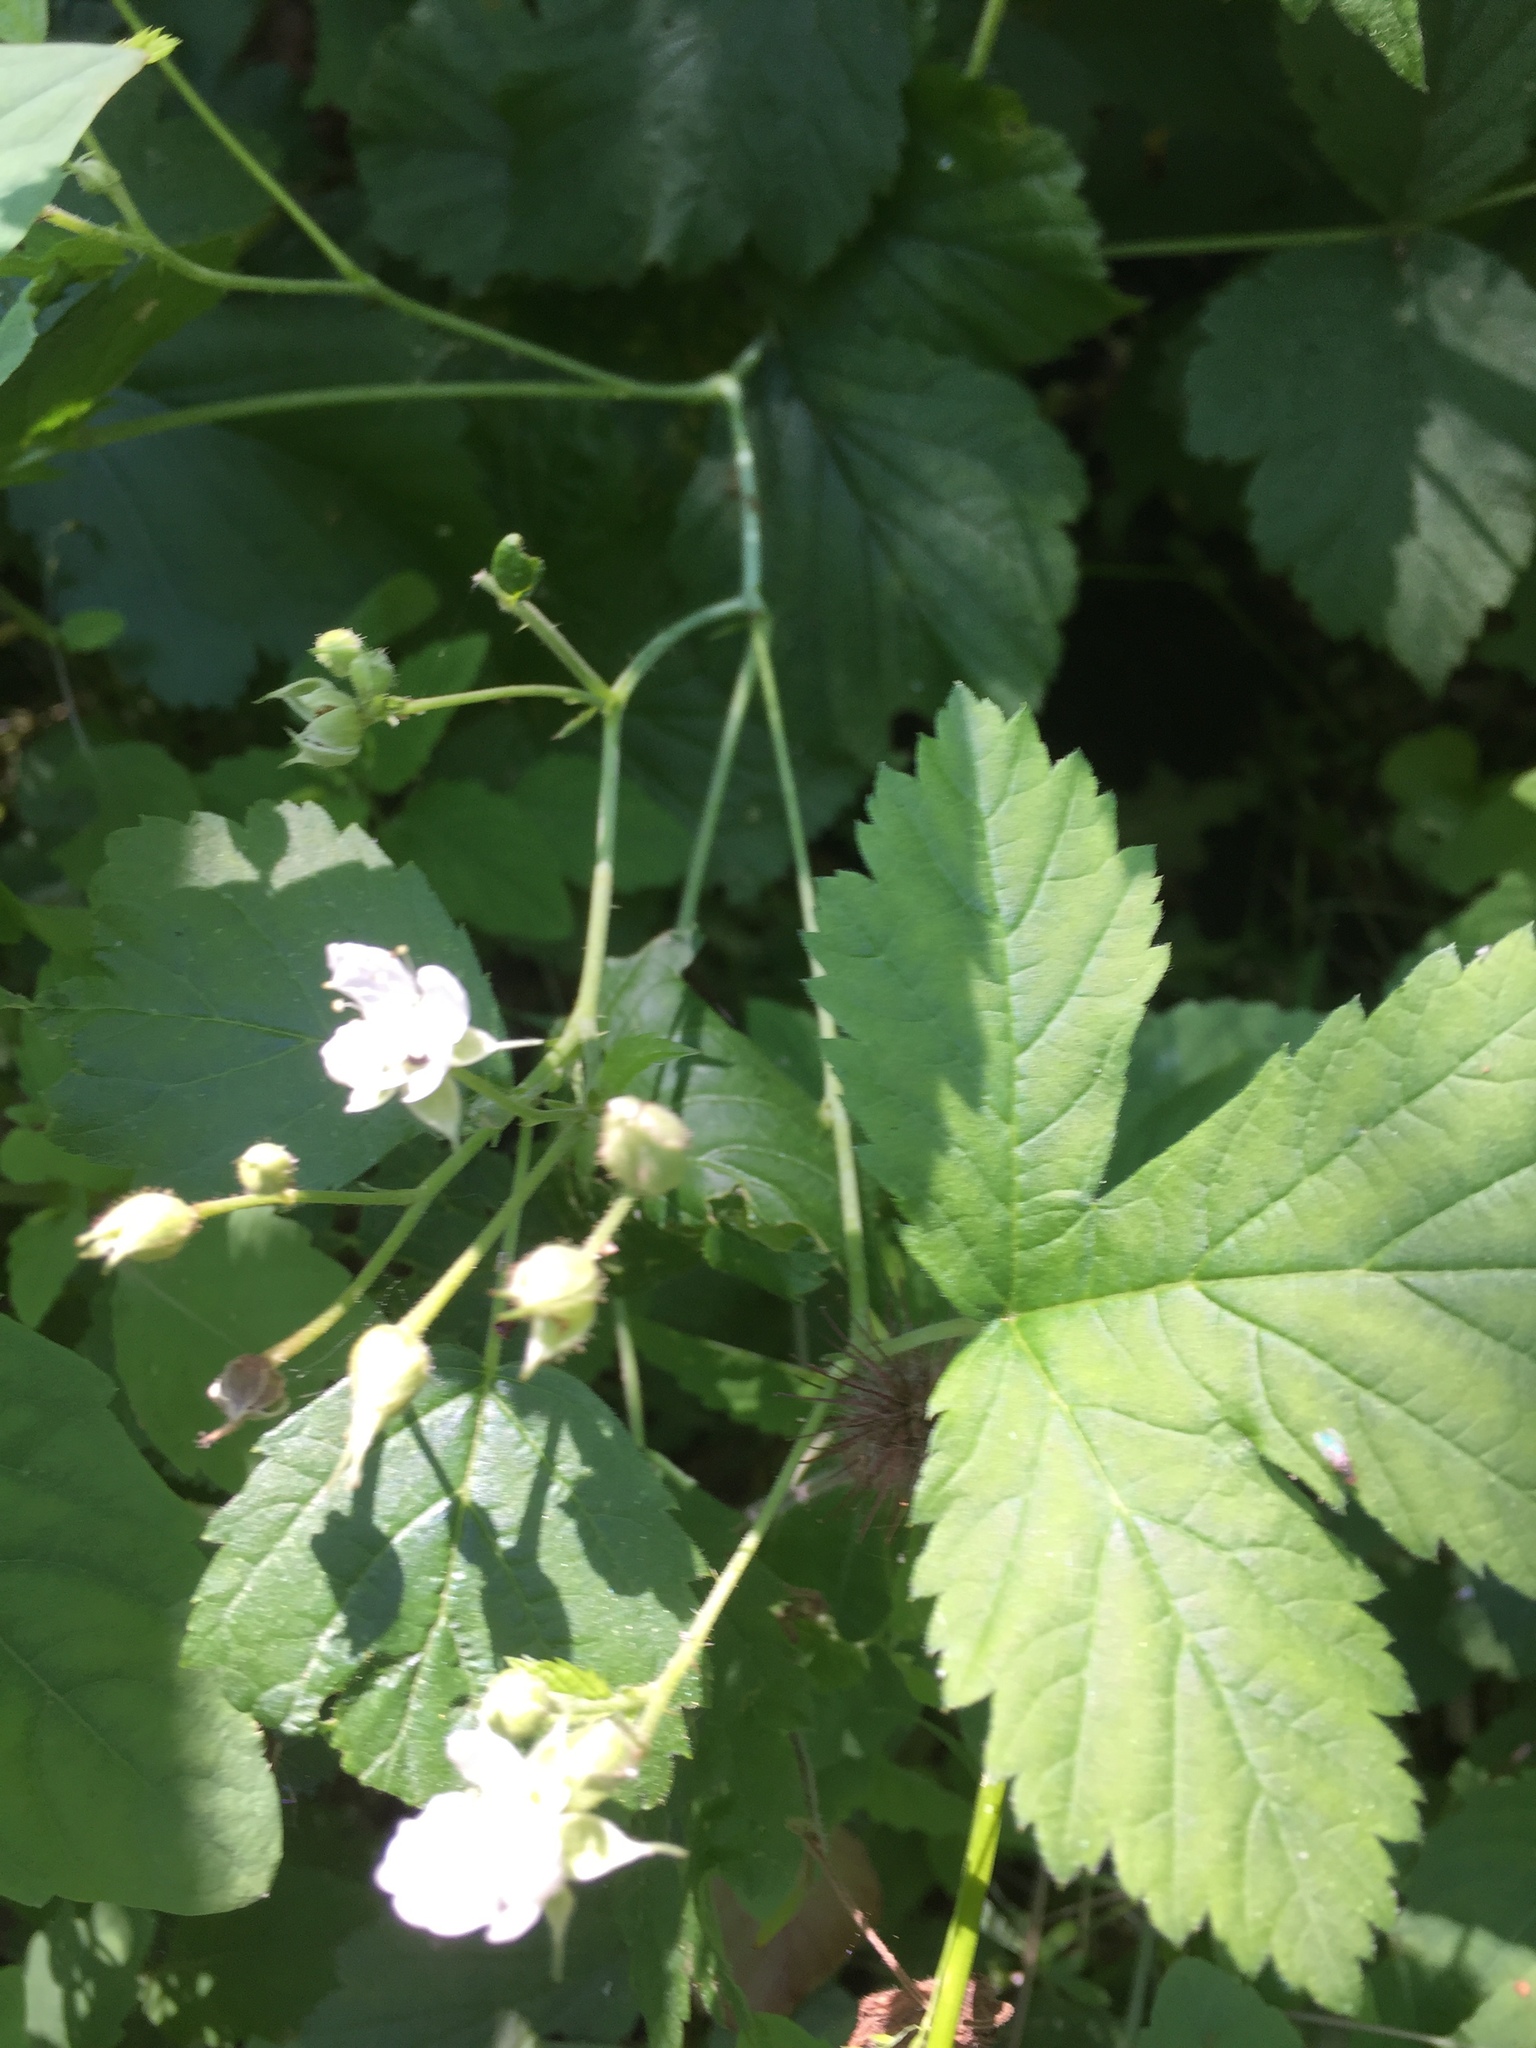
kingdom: Plantae
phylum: Tracheophyta
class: Magnoliopsida
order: Rosales
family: Rosaceae
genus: Rubus
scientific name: Rubus caesius
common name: Dewberry
